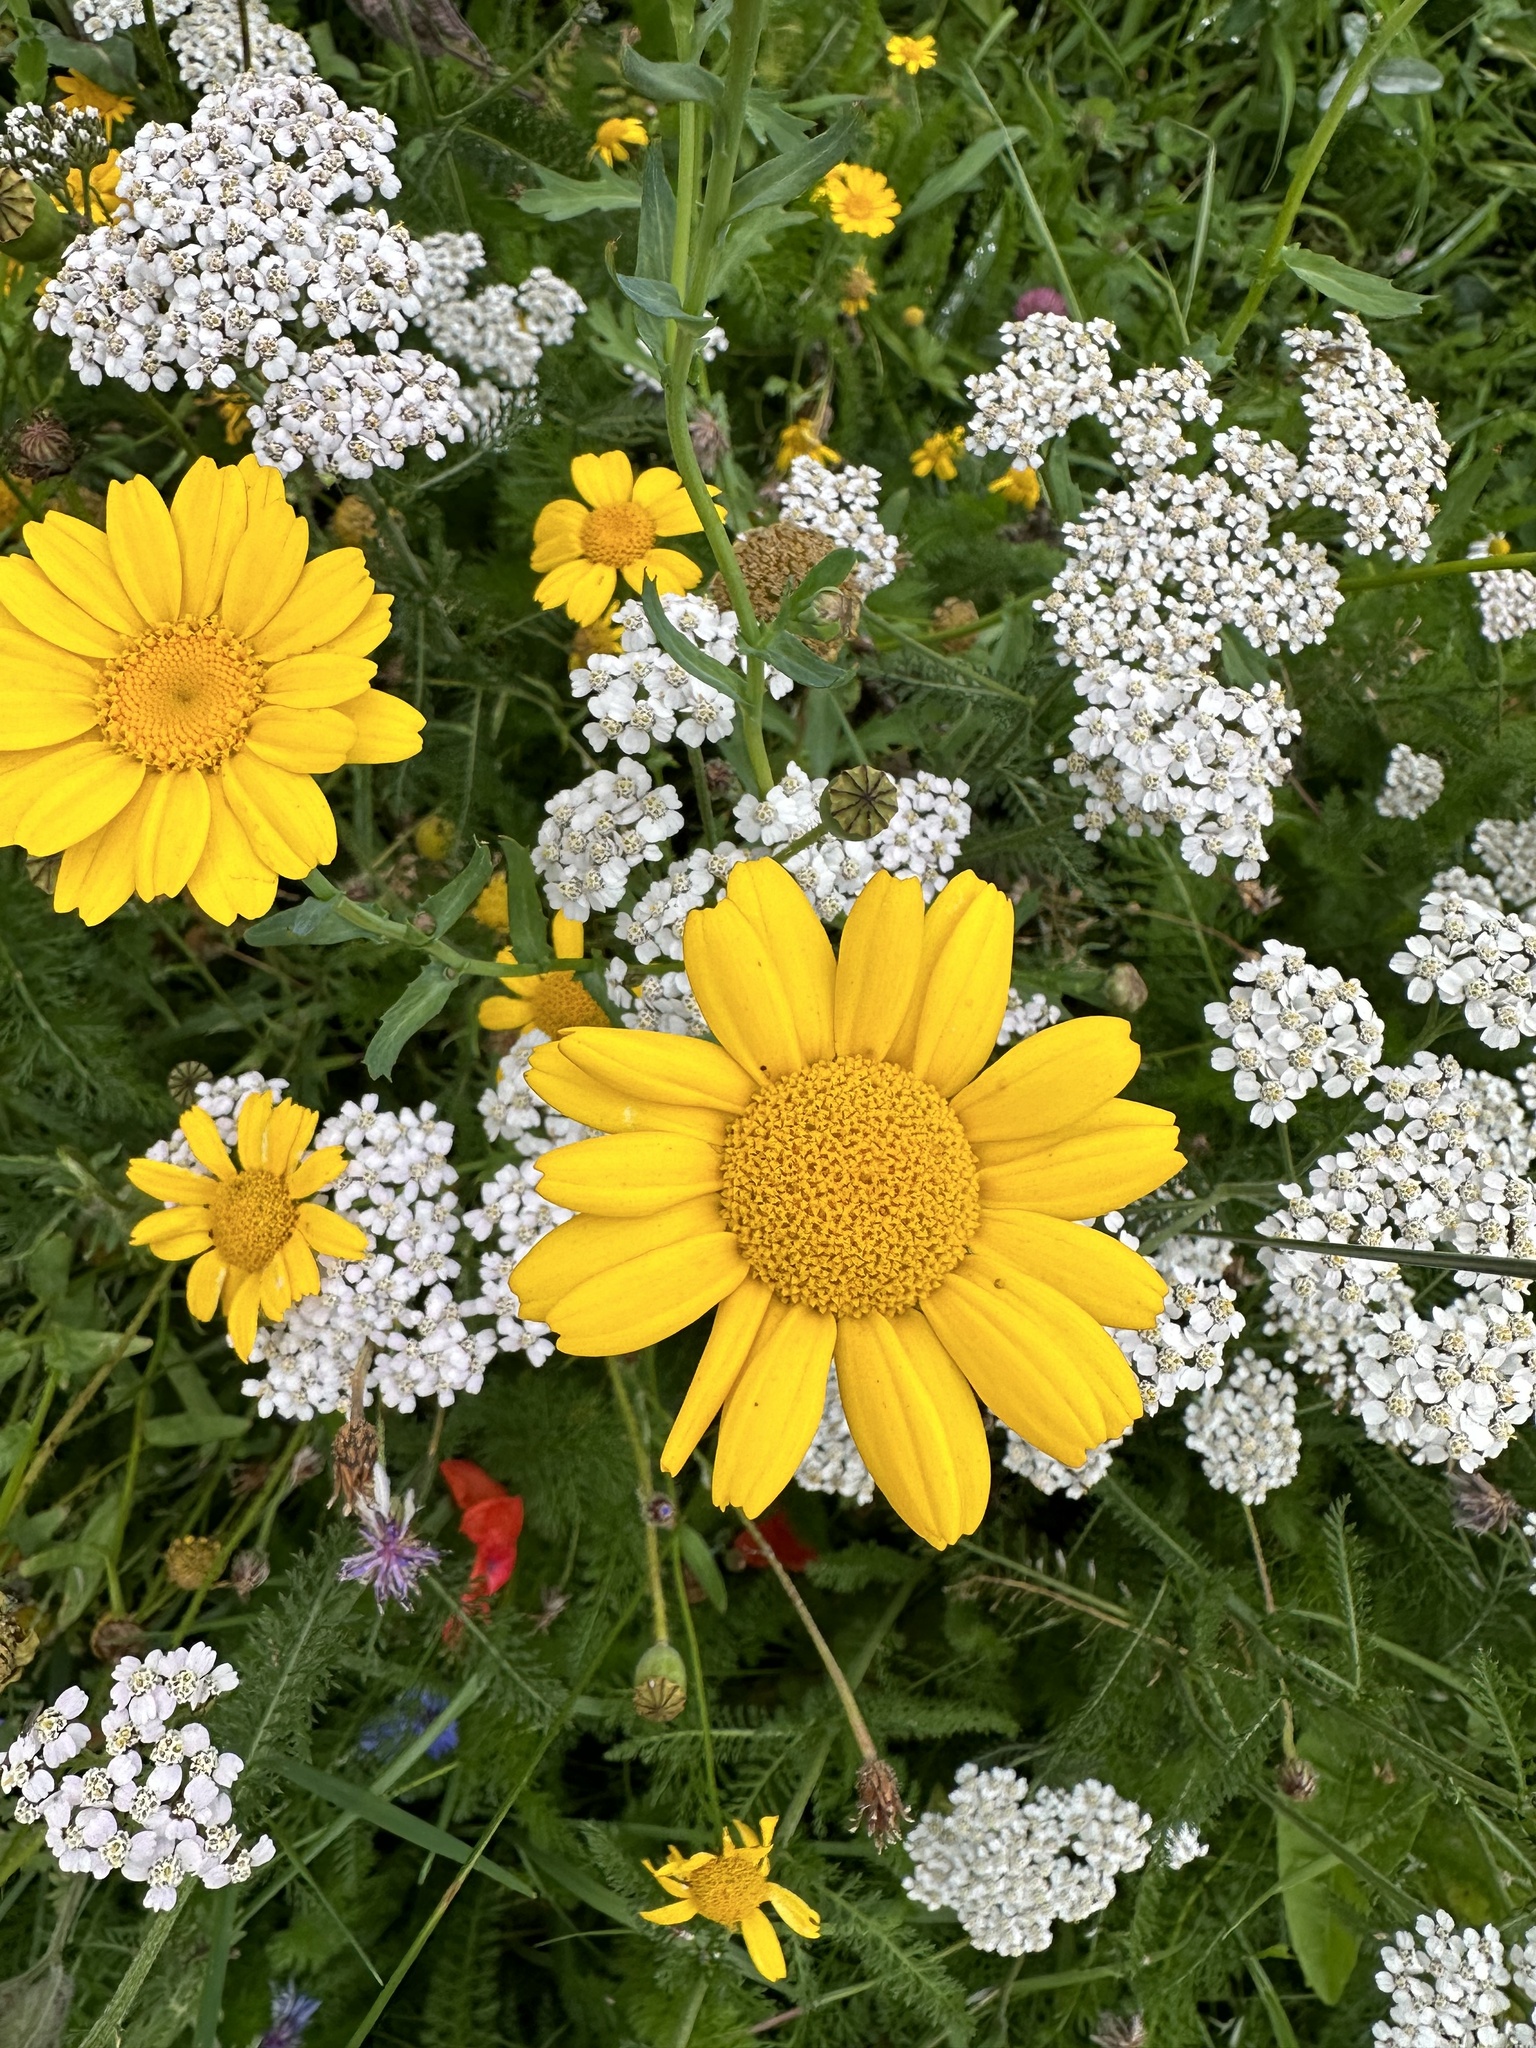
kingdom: Plantae
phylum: Tracheophyta
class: Magnoliopsida
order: Asterales
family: Asteraceae
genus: Glebionis
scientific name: Glebionis segetum
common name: Corndaisy
